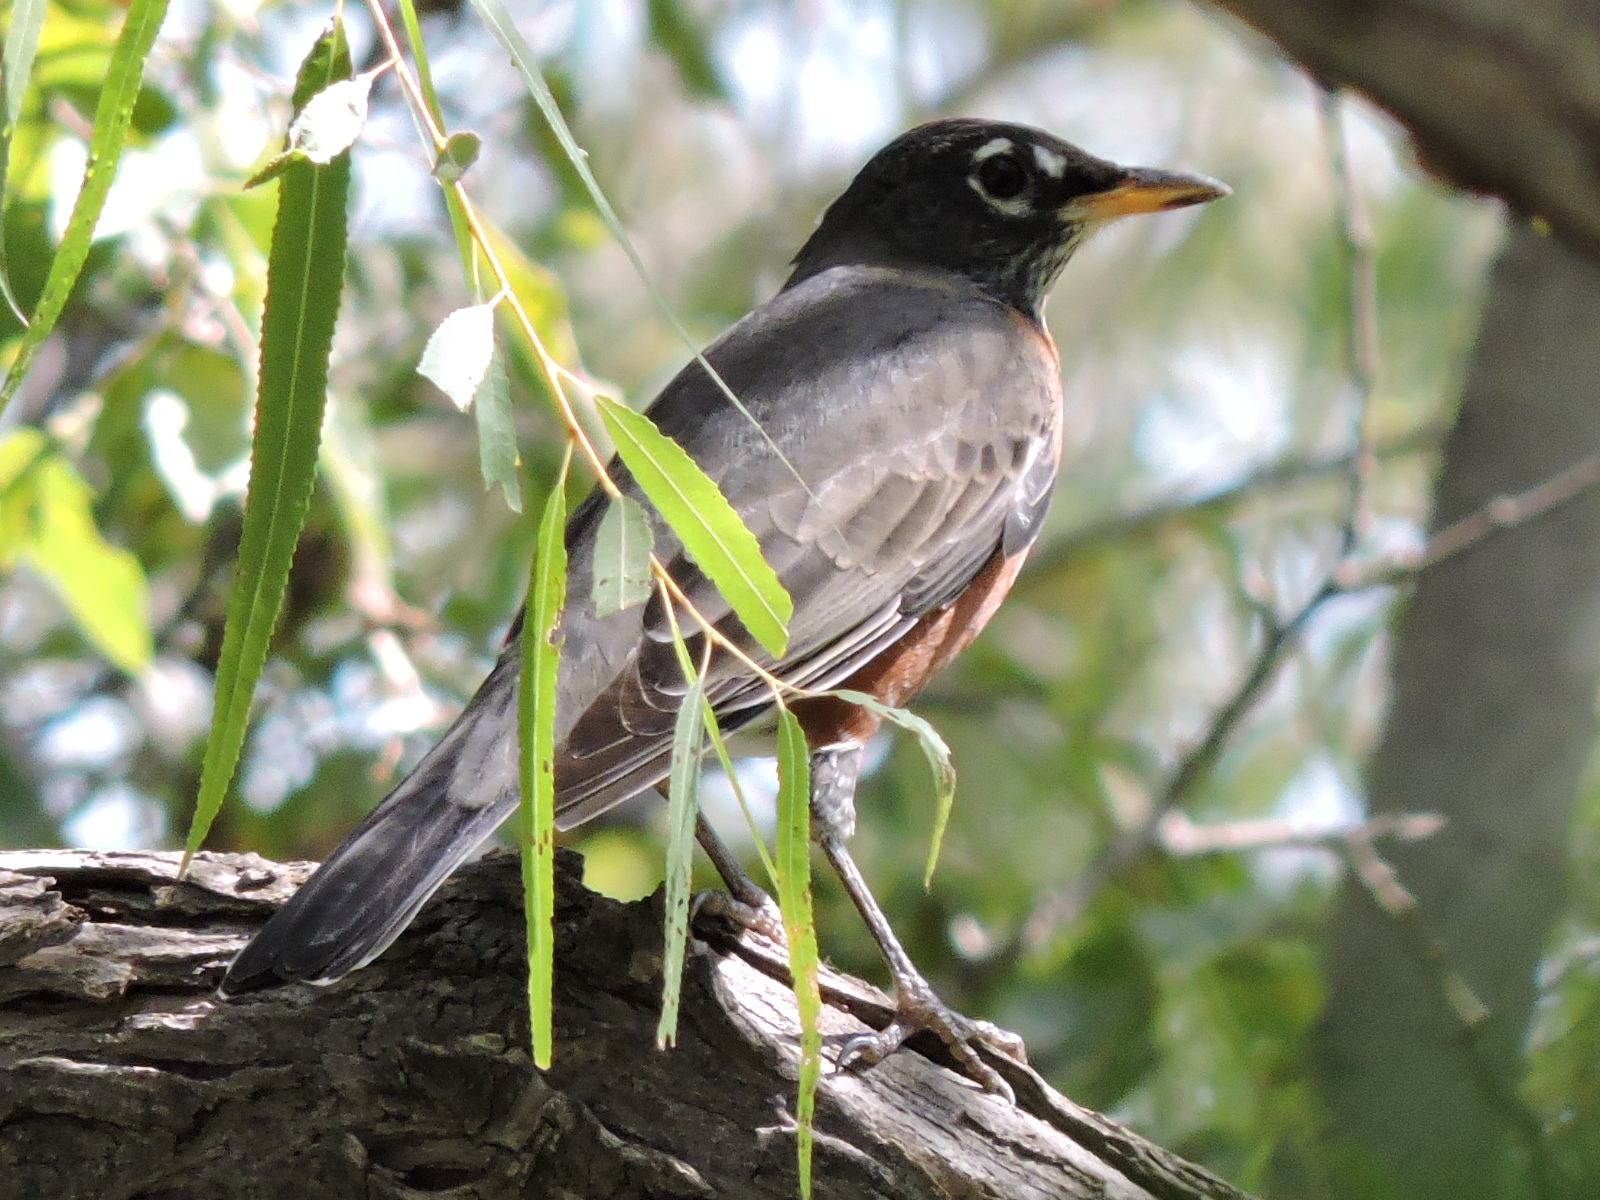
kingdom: Animalia
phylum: Chordata
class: Aves
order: Passeriformes
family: Turdidae
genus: Turdus
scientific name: Turdus migratorius
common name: American robin
